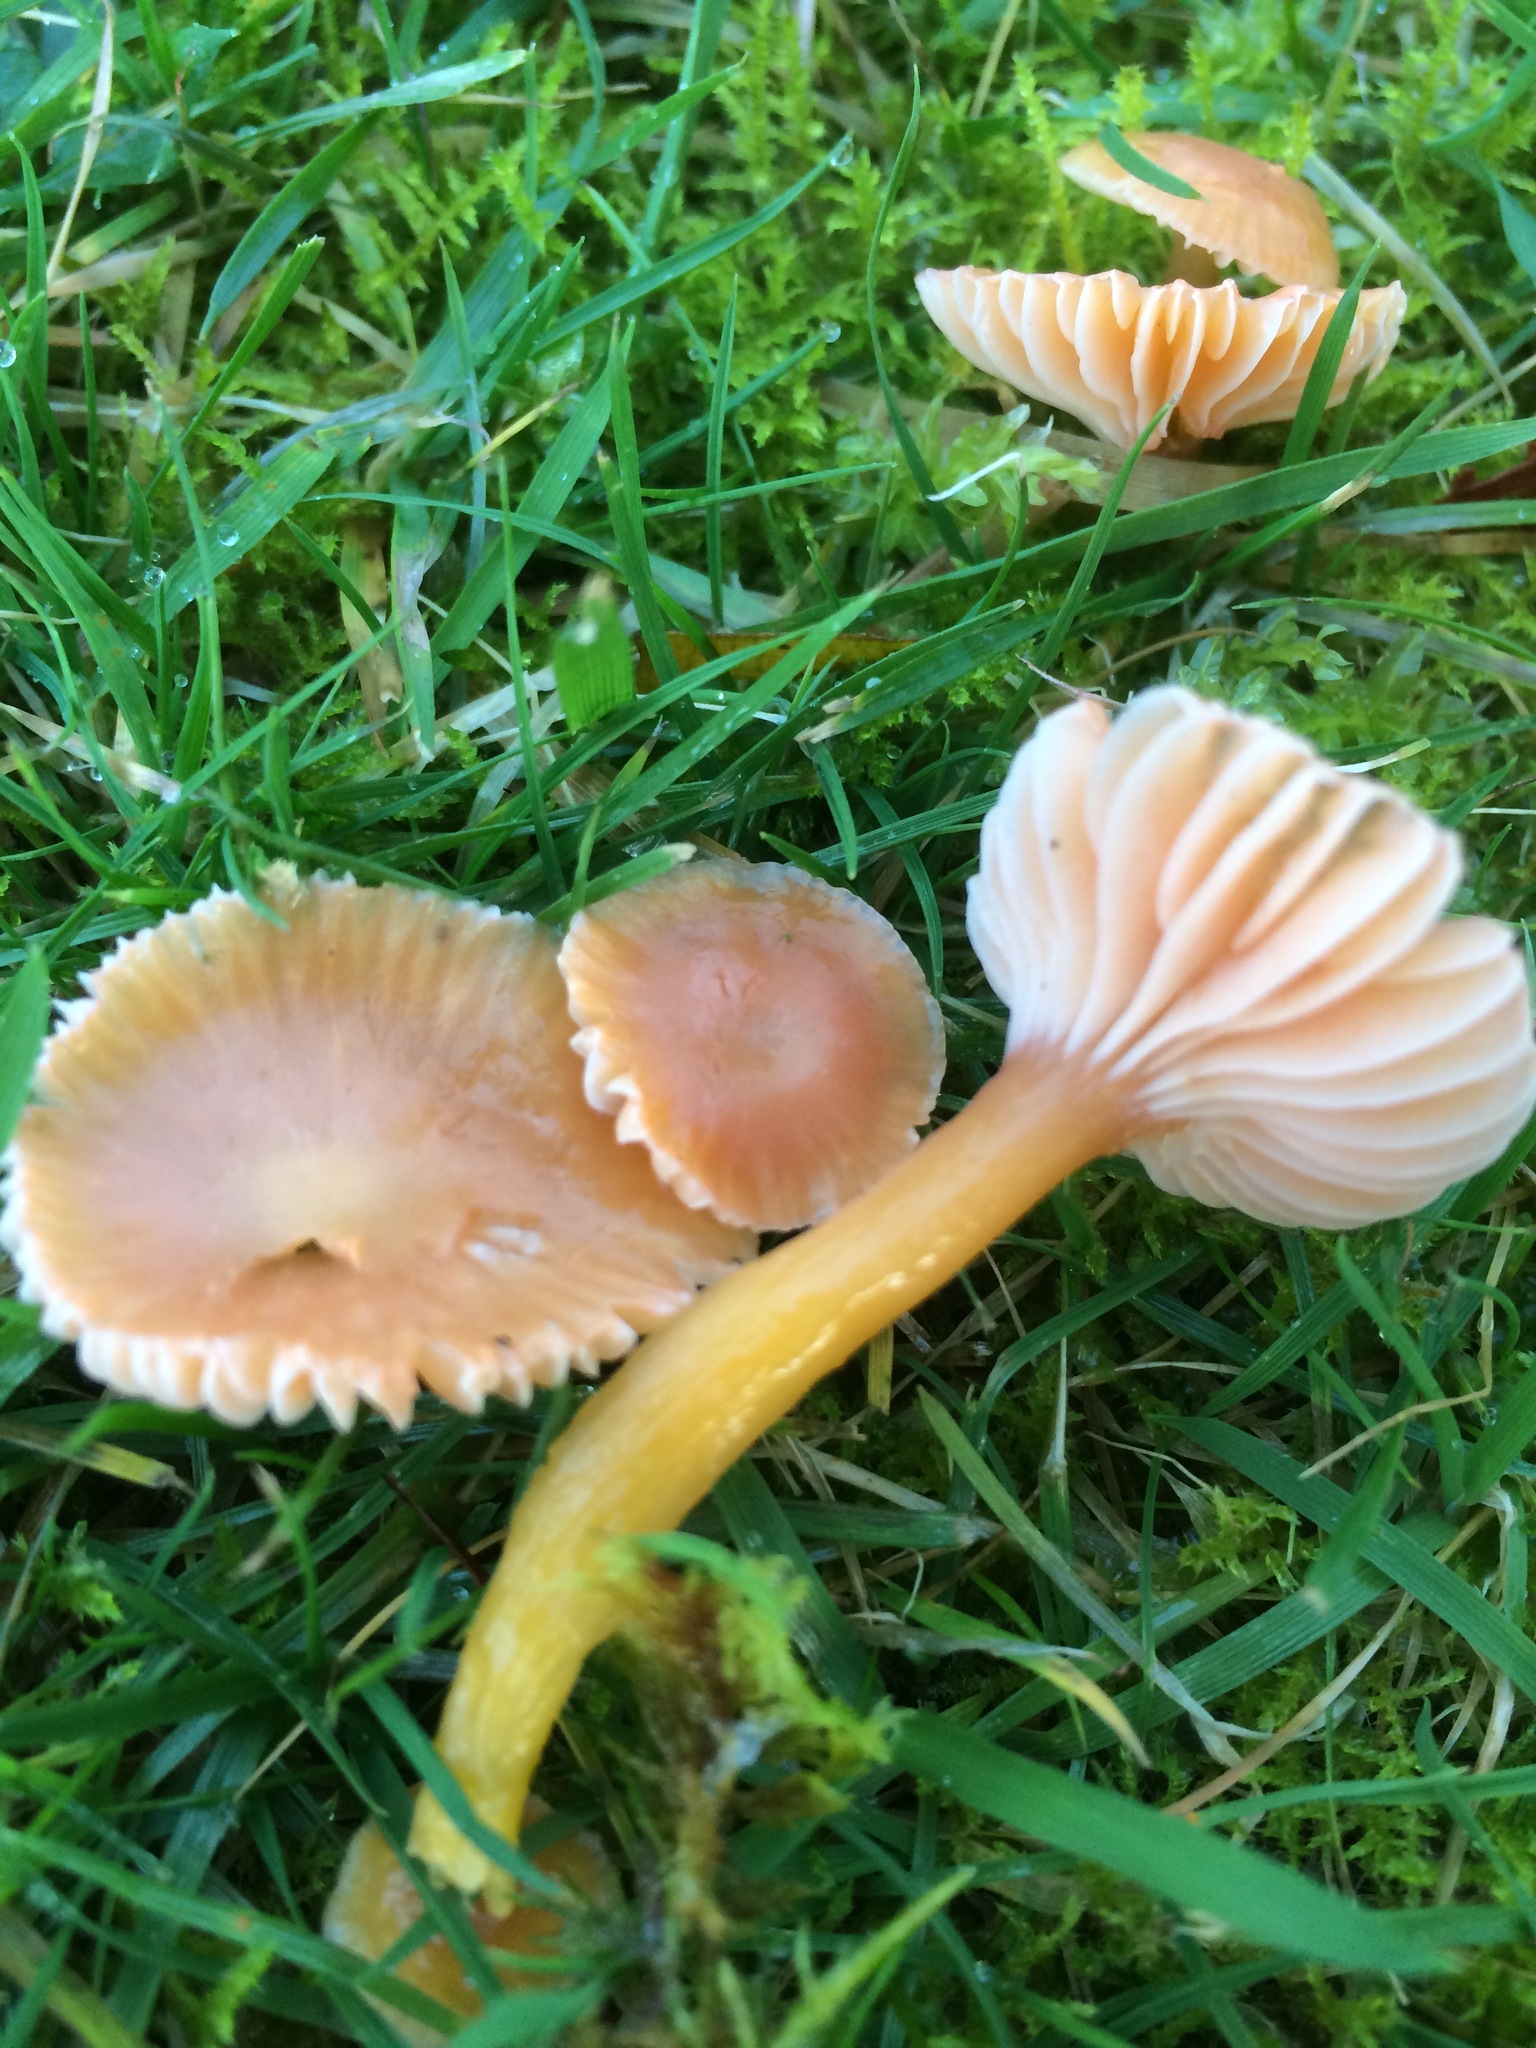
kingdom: Fungi
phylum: Basidiomycota
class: Agaricomycetes
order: Agaricales
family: Hygrophoraceae
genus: Gliophorus
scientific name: Gliophorus laetus
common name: Heath waxcap
